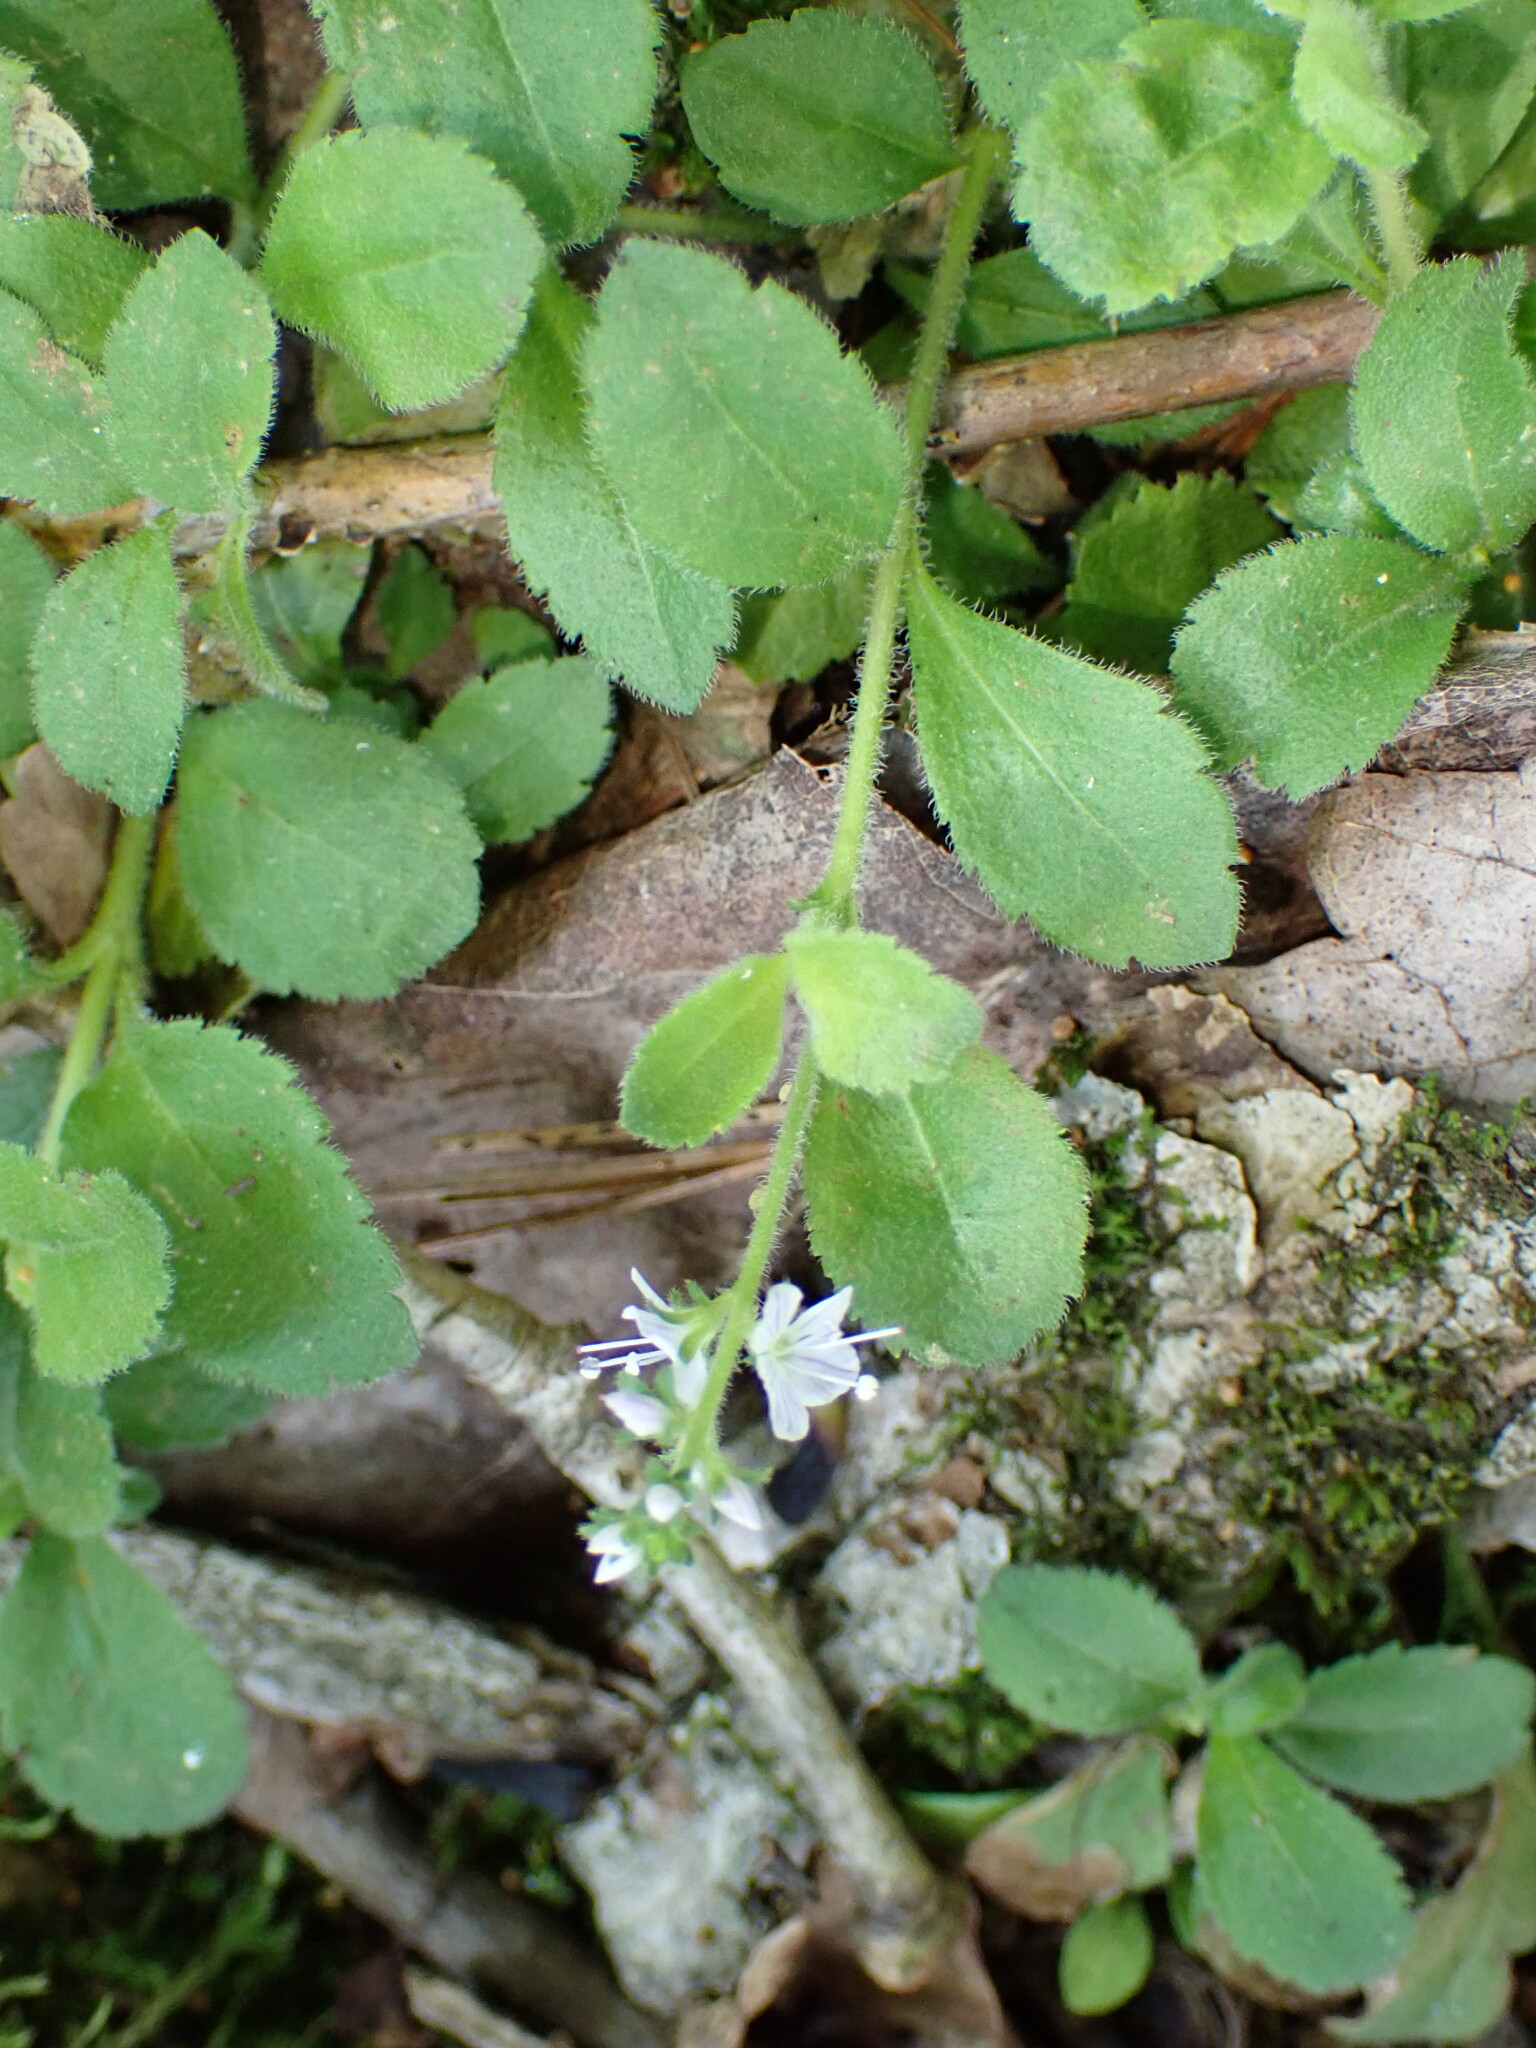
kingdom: Plantae
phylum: Tracheophyta
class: Magnoliopsida
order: Lamiales
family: Plantaginaceae
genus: Veronica
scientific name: Veronica officinalis
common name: Common speedwell
